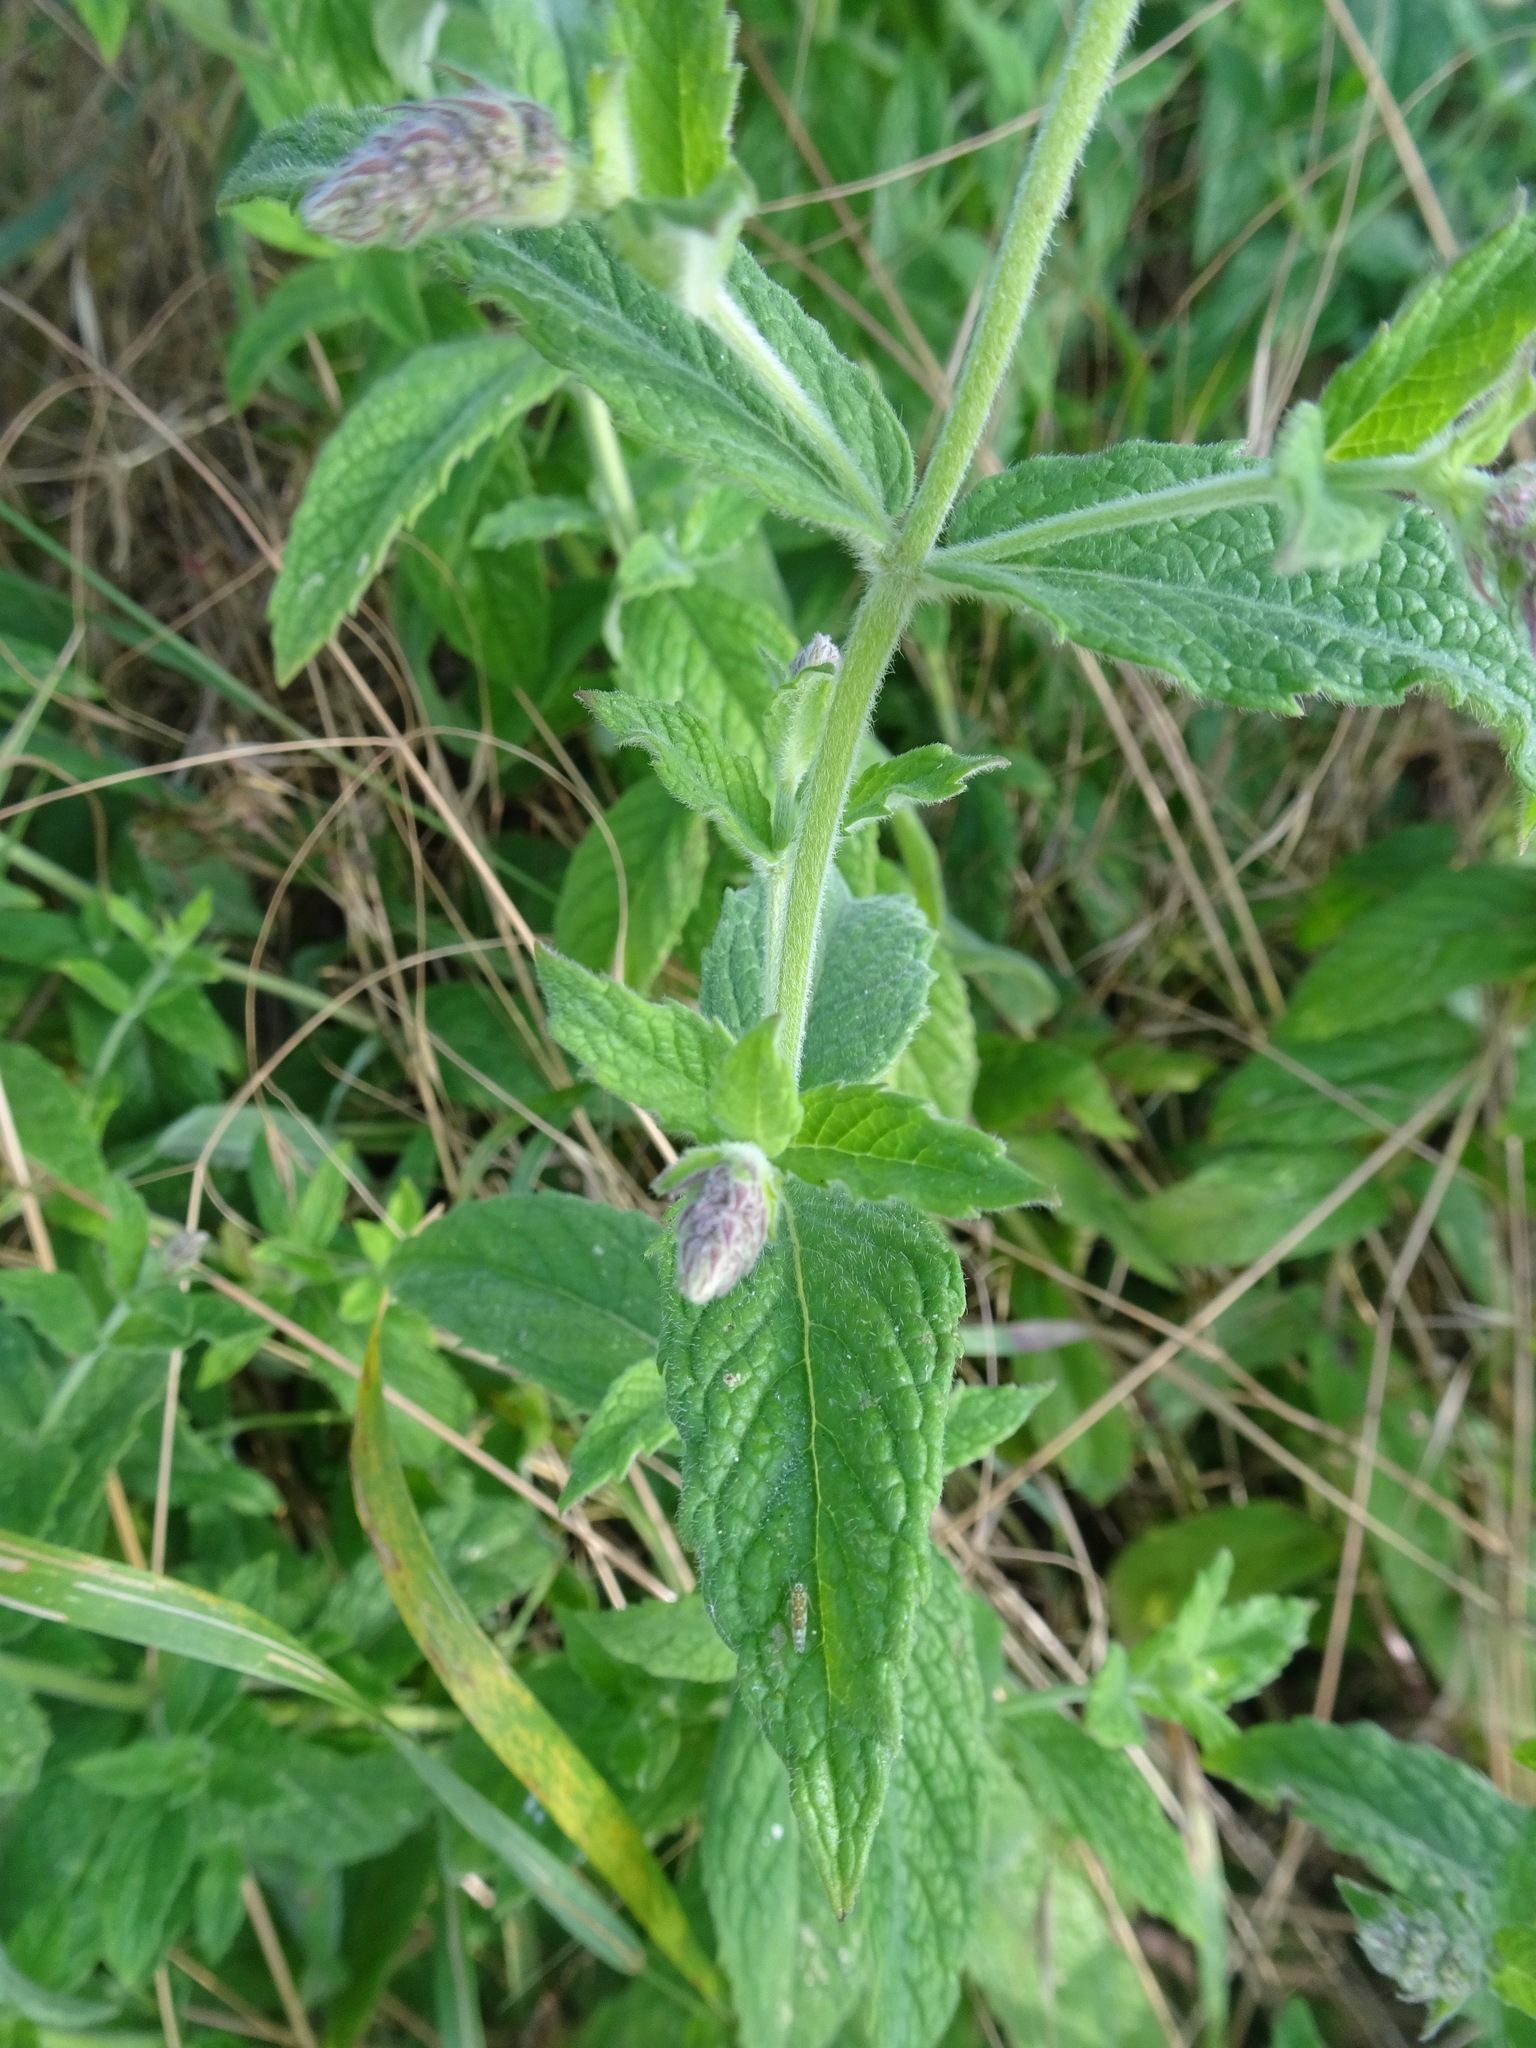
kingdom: Plantae
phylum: Tracheophyta
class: Magnoliopsida
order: Lamiales
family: Lamiaceae
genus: Mentha
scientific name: Mentha spicata
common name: Spearmint
